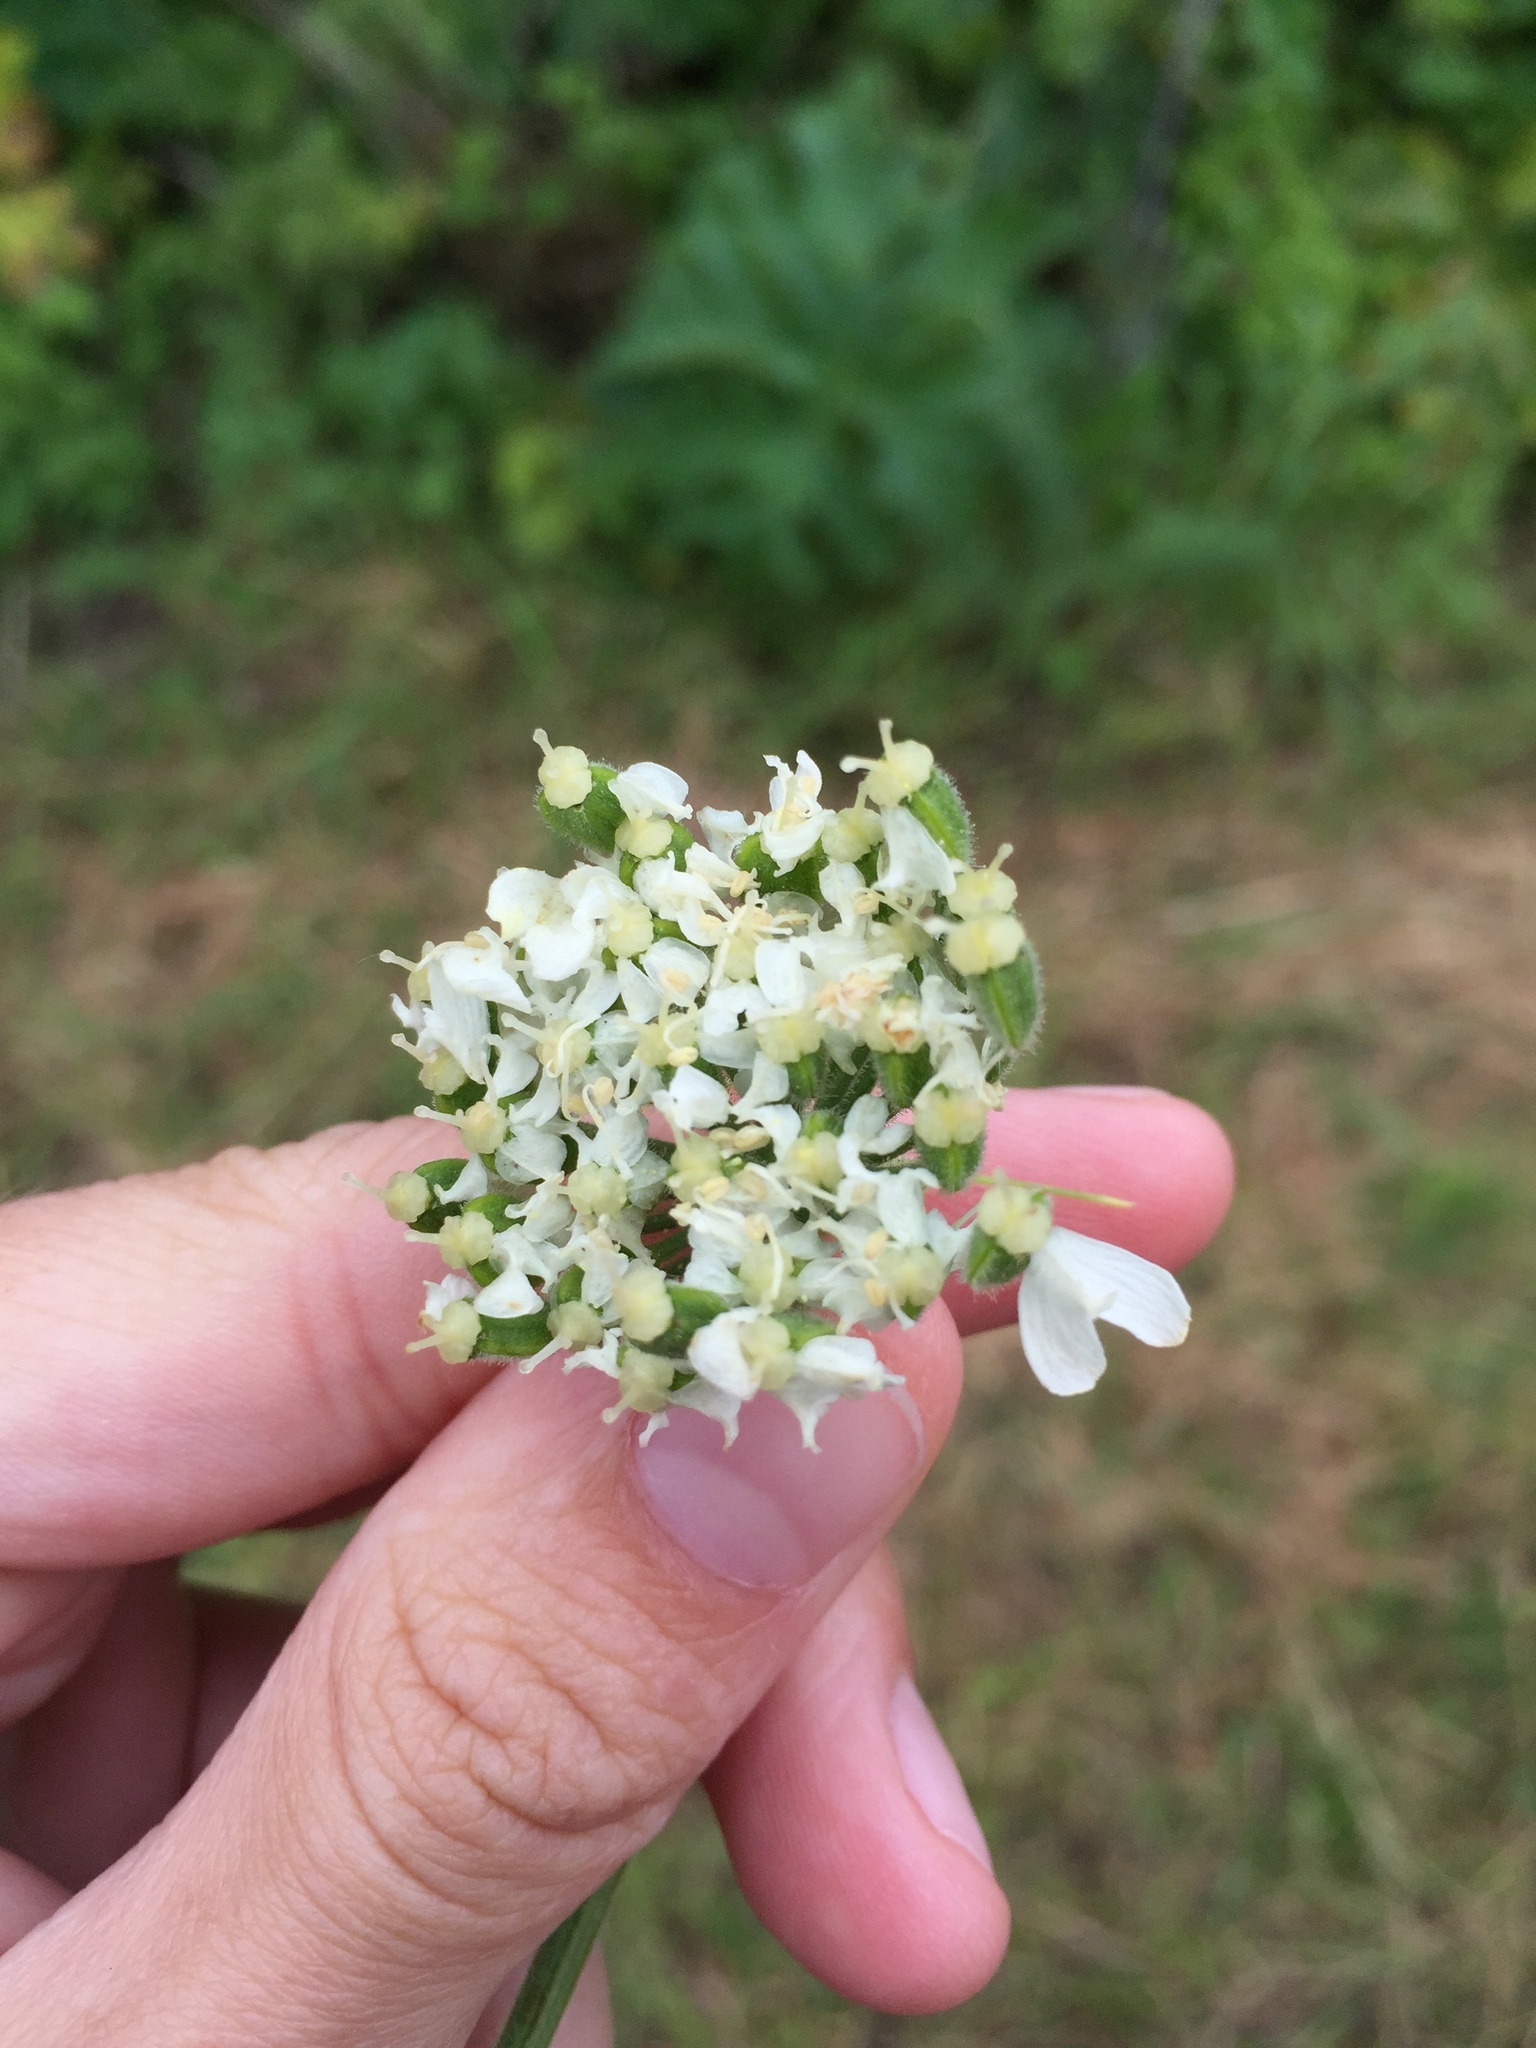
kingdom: Plantae
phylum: Tracheophyta
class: Magnoliopsida
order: Apiales
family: Apiaceae
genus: Heracleum
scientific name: Heracleum maximum
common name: American cow parsnip
